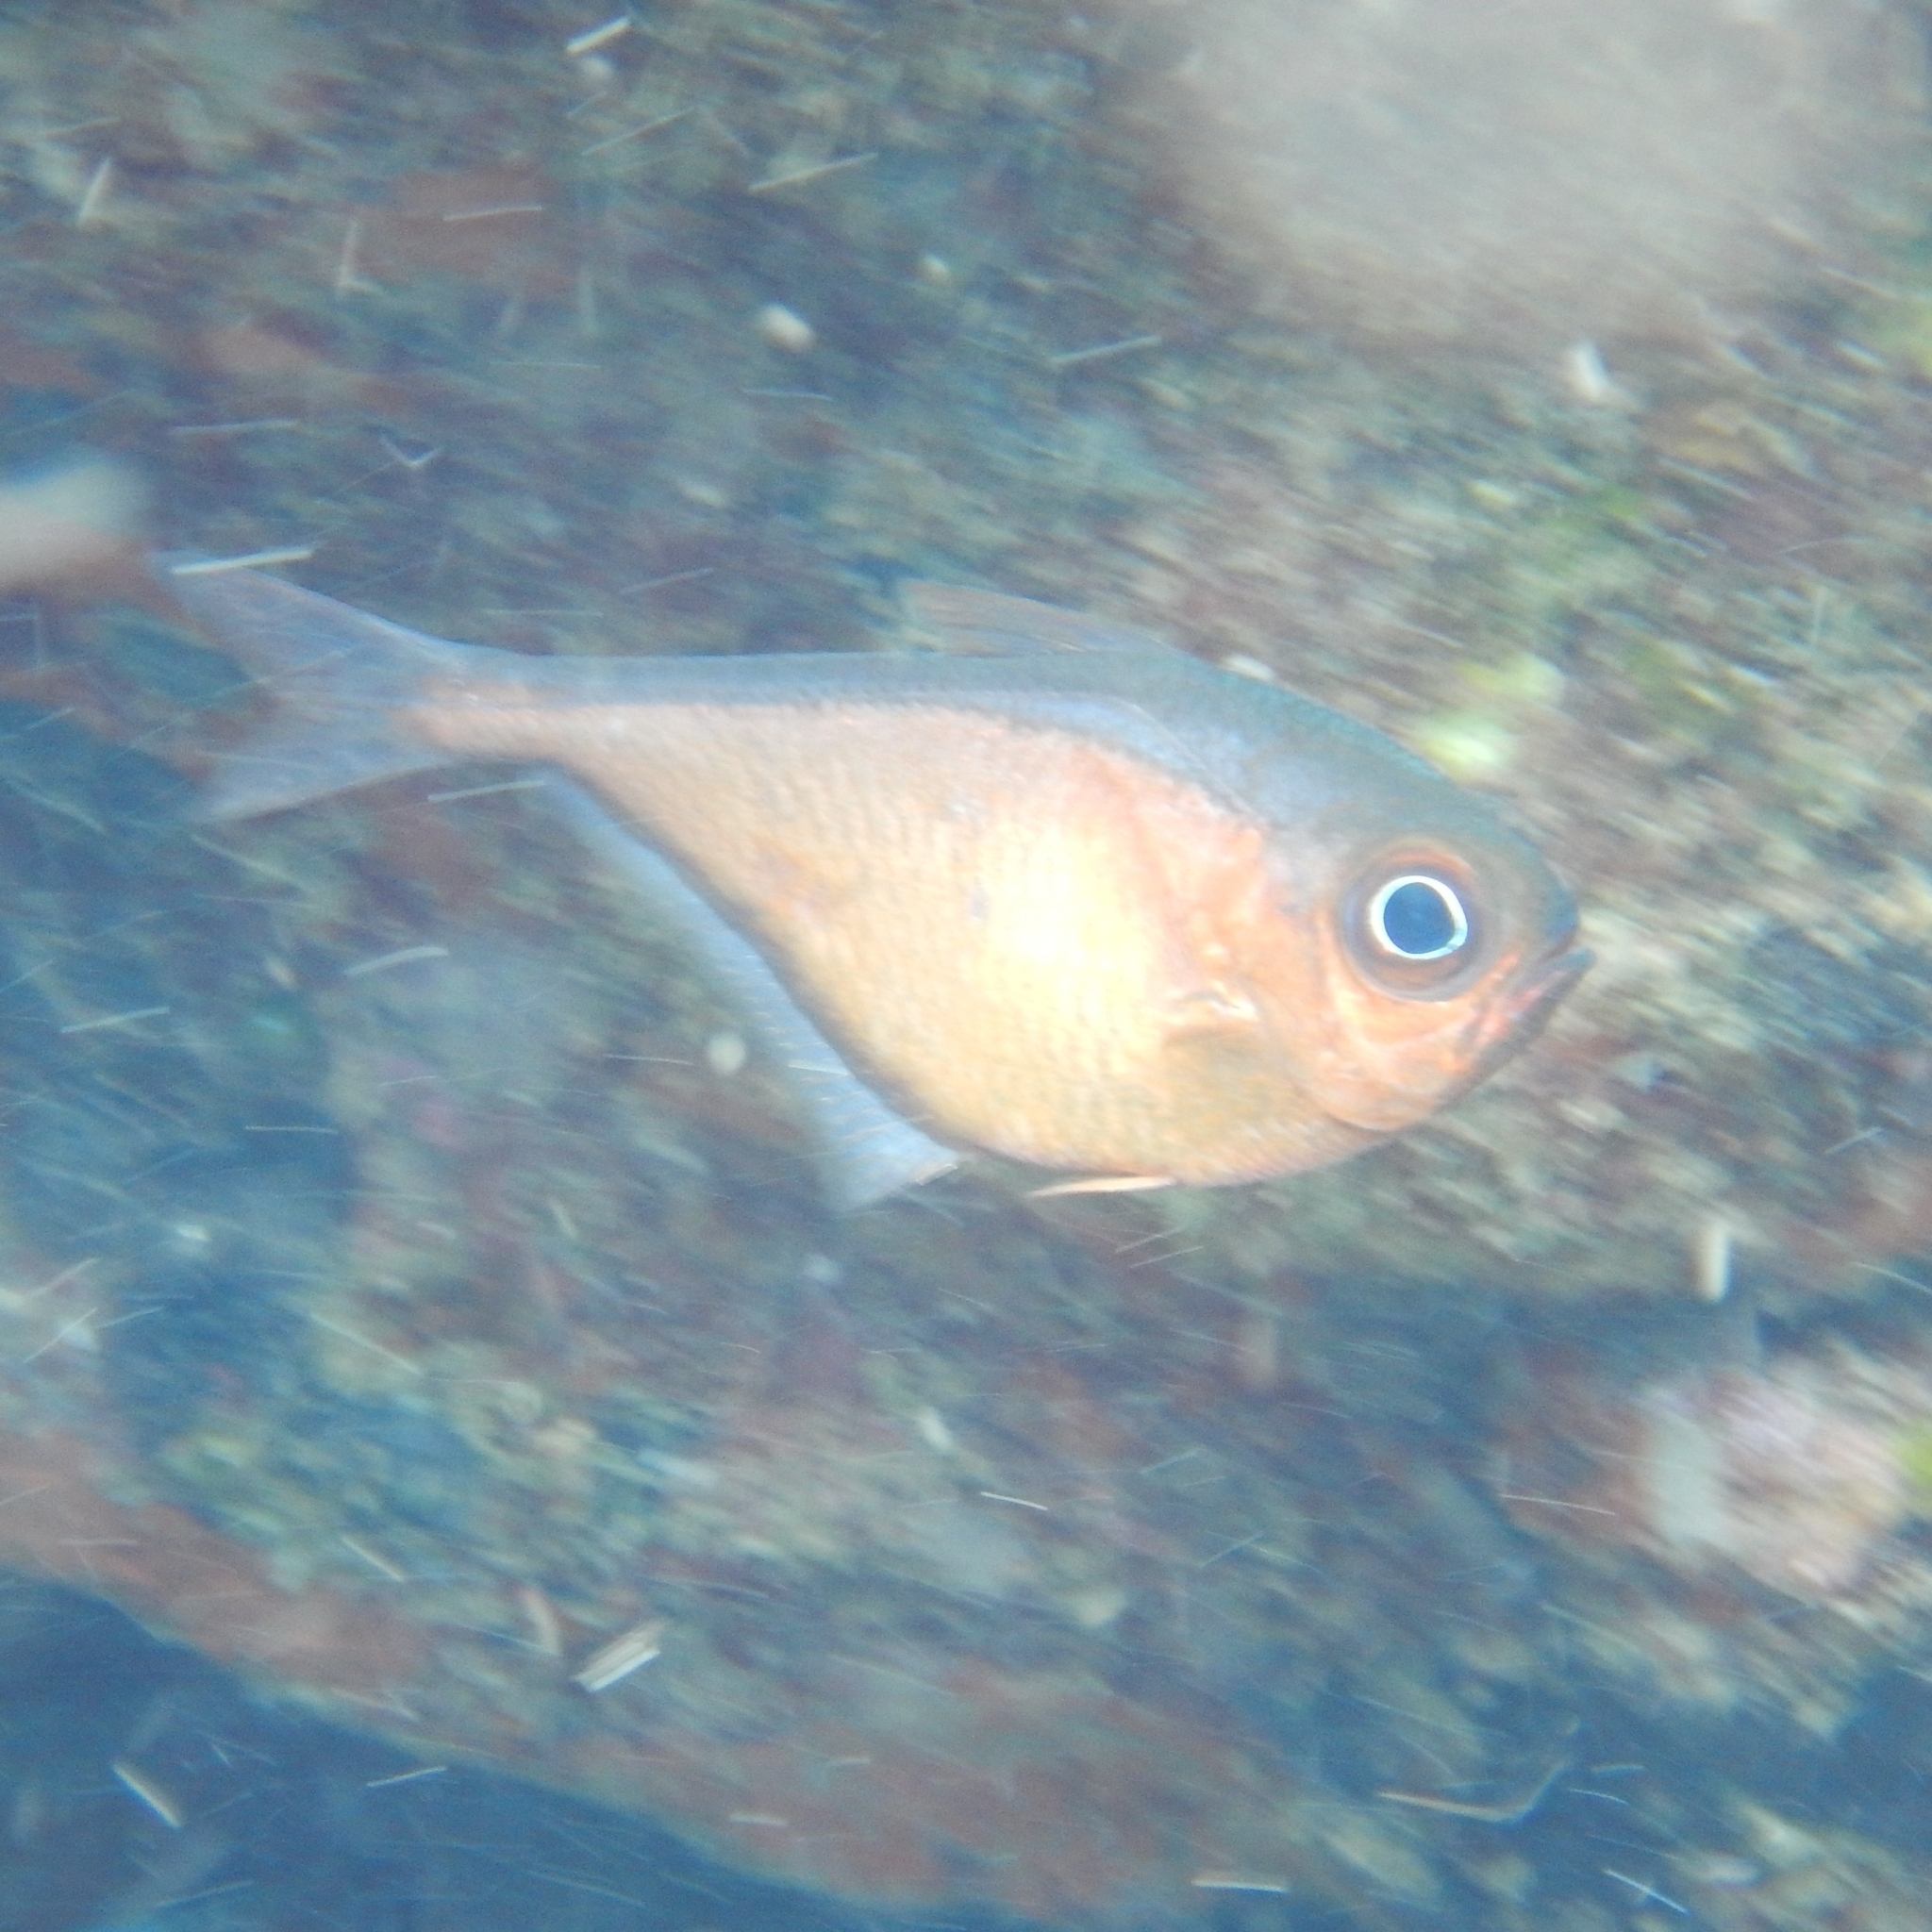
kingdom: Animalia
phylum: Chordata
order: Perciformes
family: Pempheridae
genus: Pempheris
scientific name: Pempheris schomburgkii
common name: Glassy sweeper
